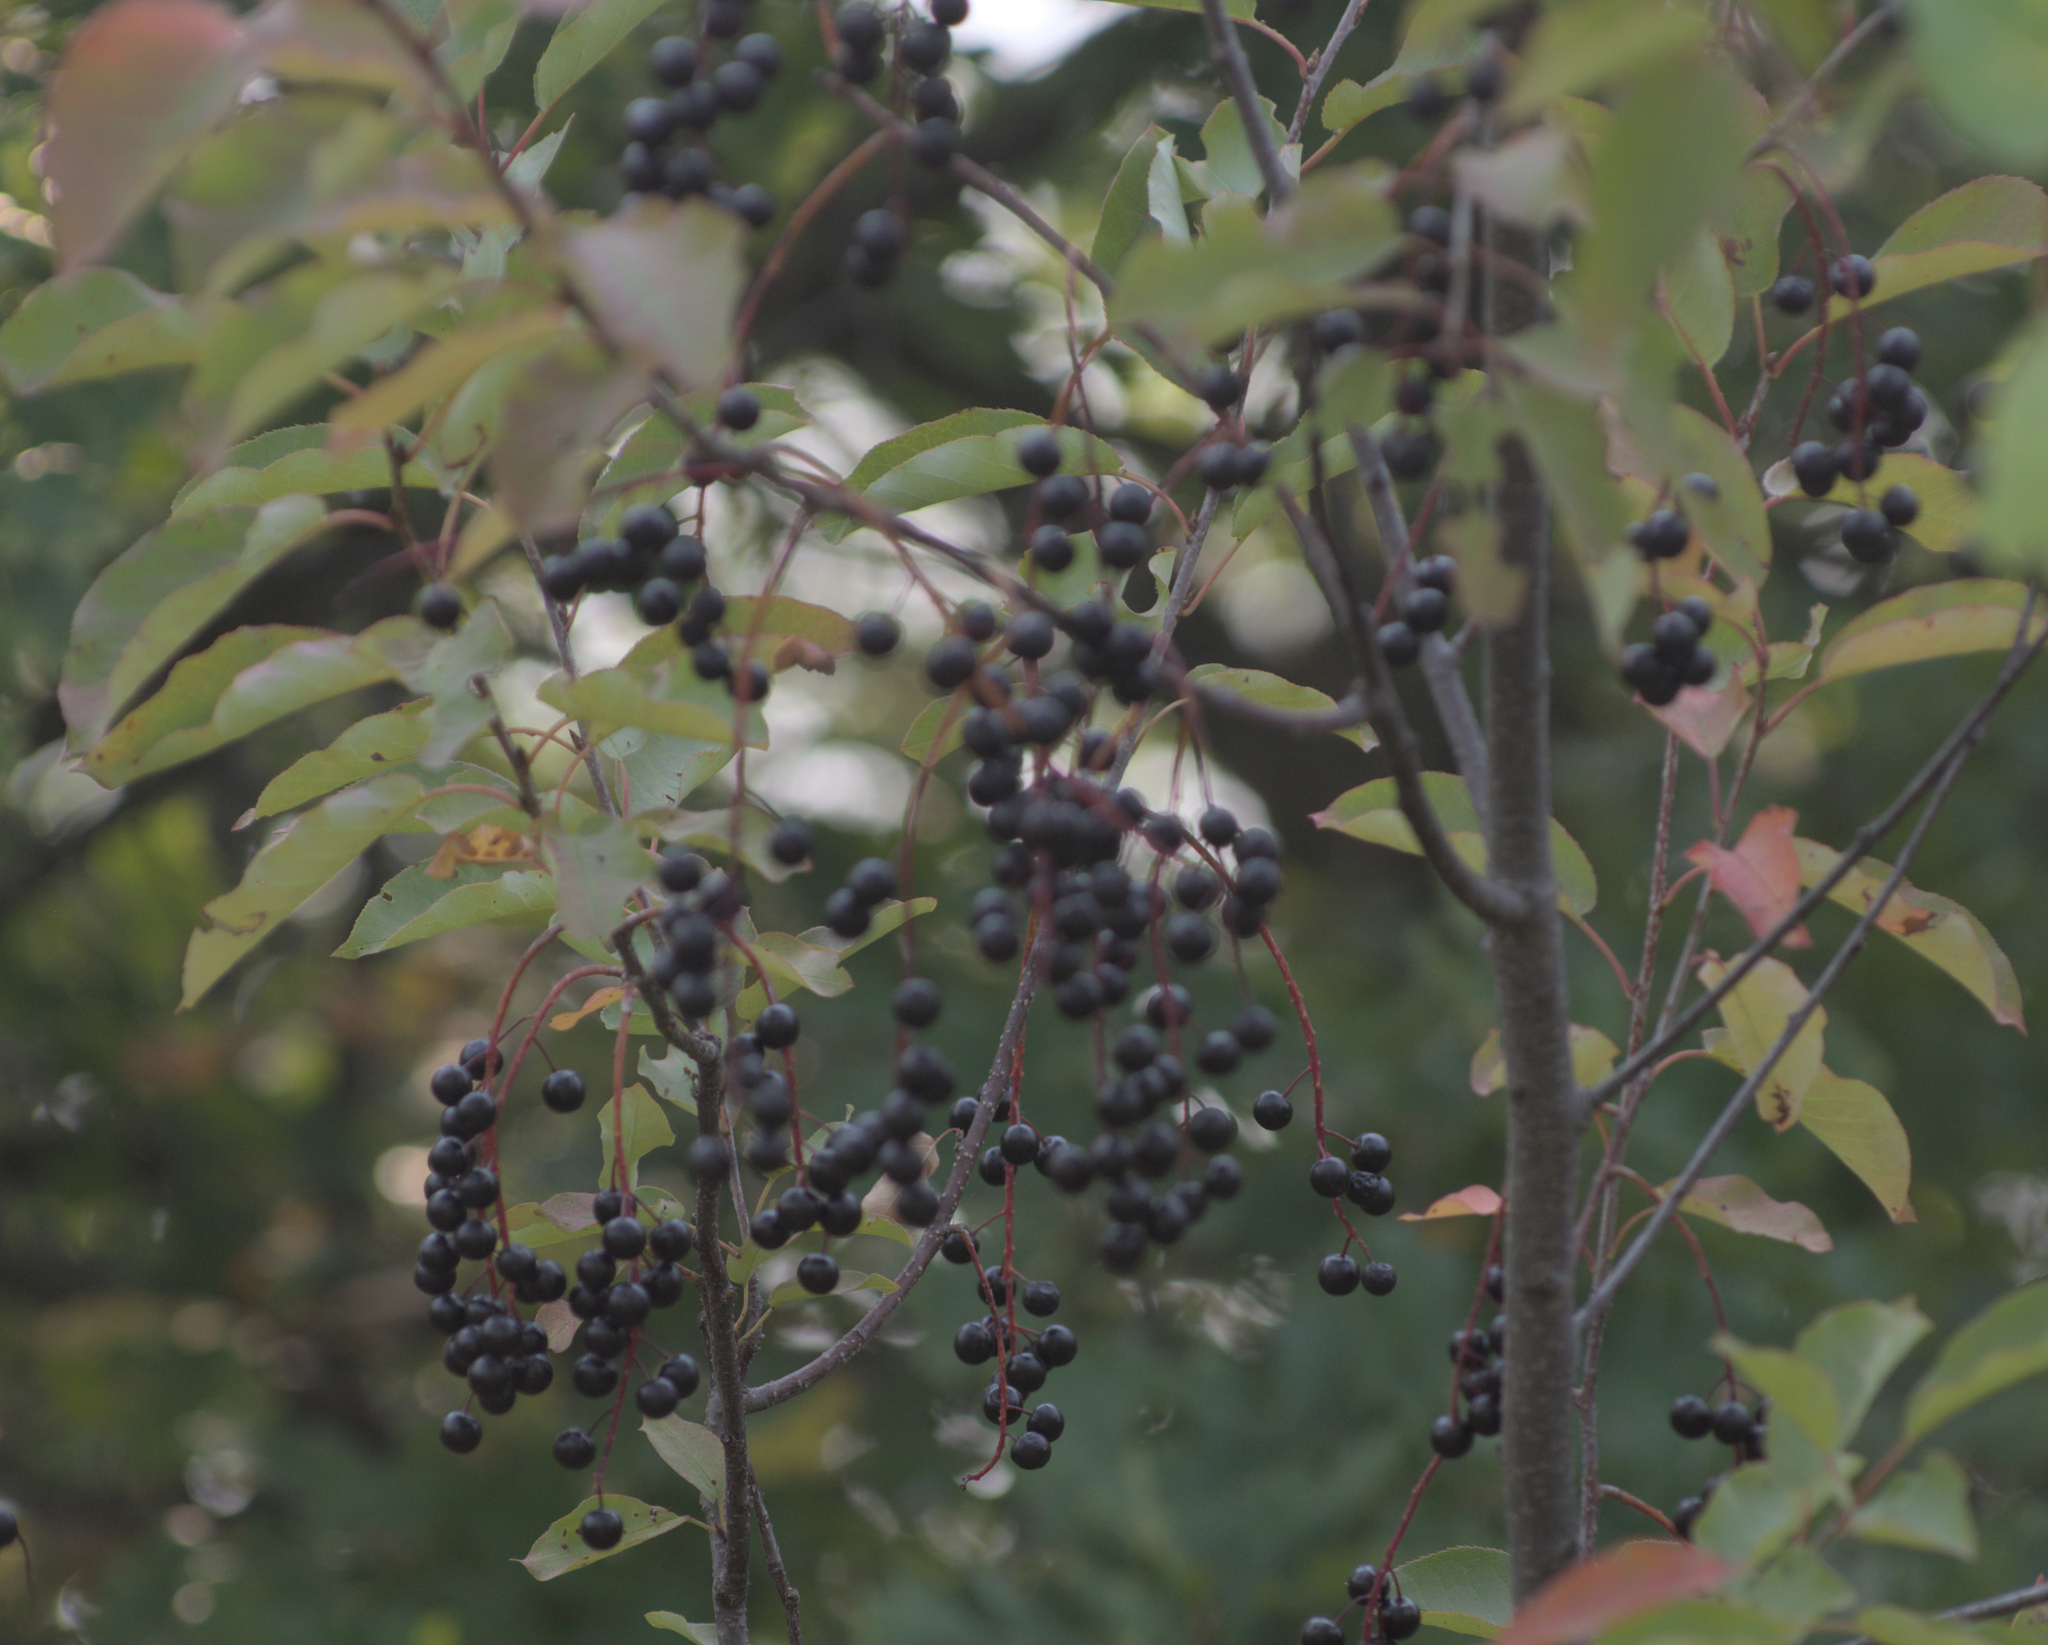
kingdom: Plantae
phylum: Tracheophyta
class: Magnoliopsida
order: Rosales
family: Rosaceae
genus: Prunus
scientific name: Prunus virginiana
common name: Chokecherry
